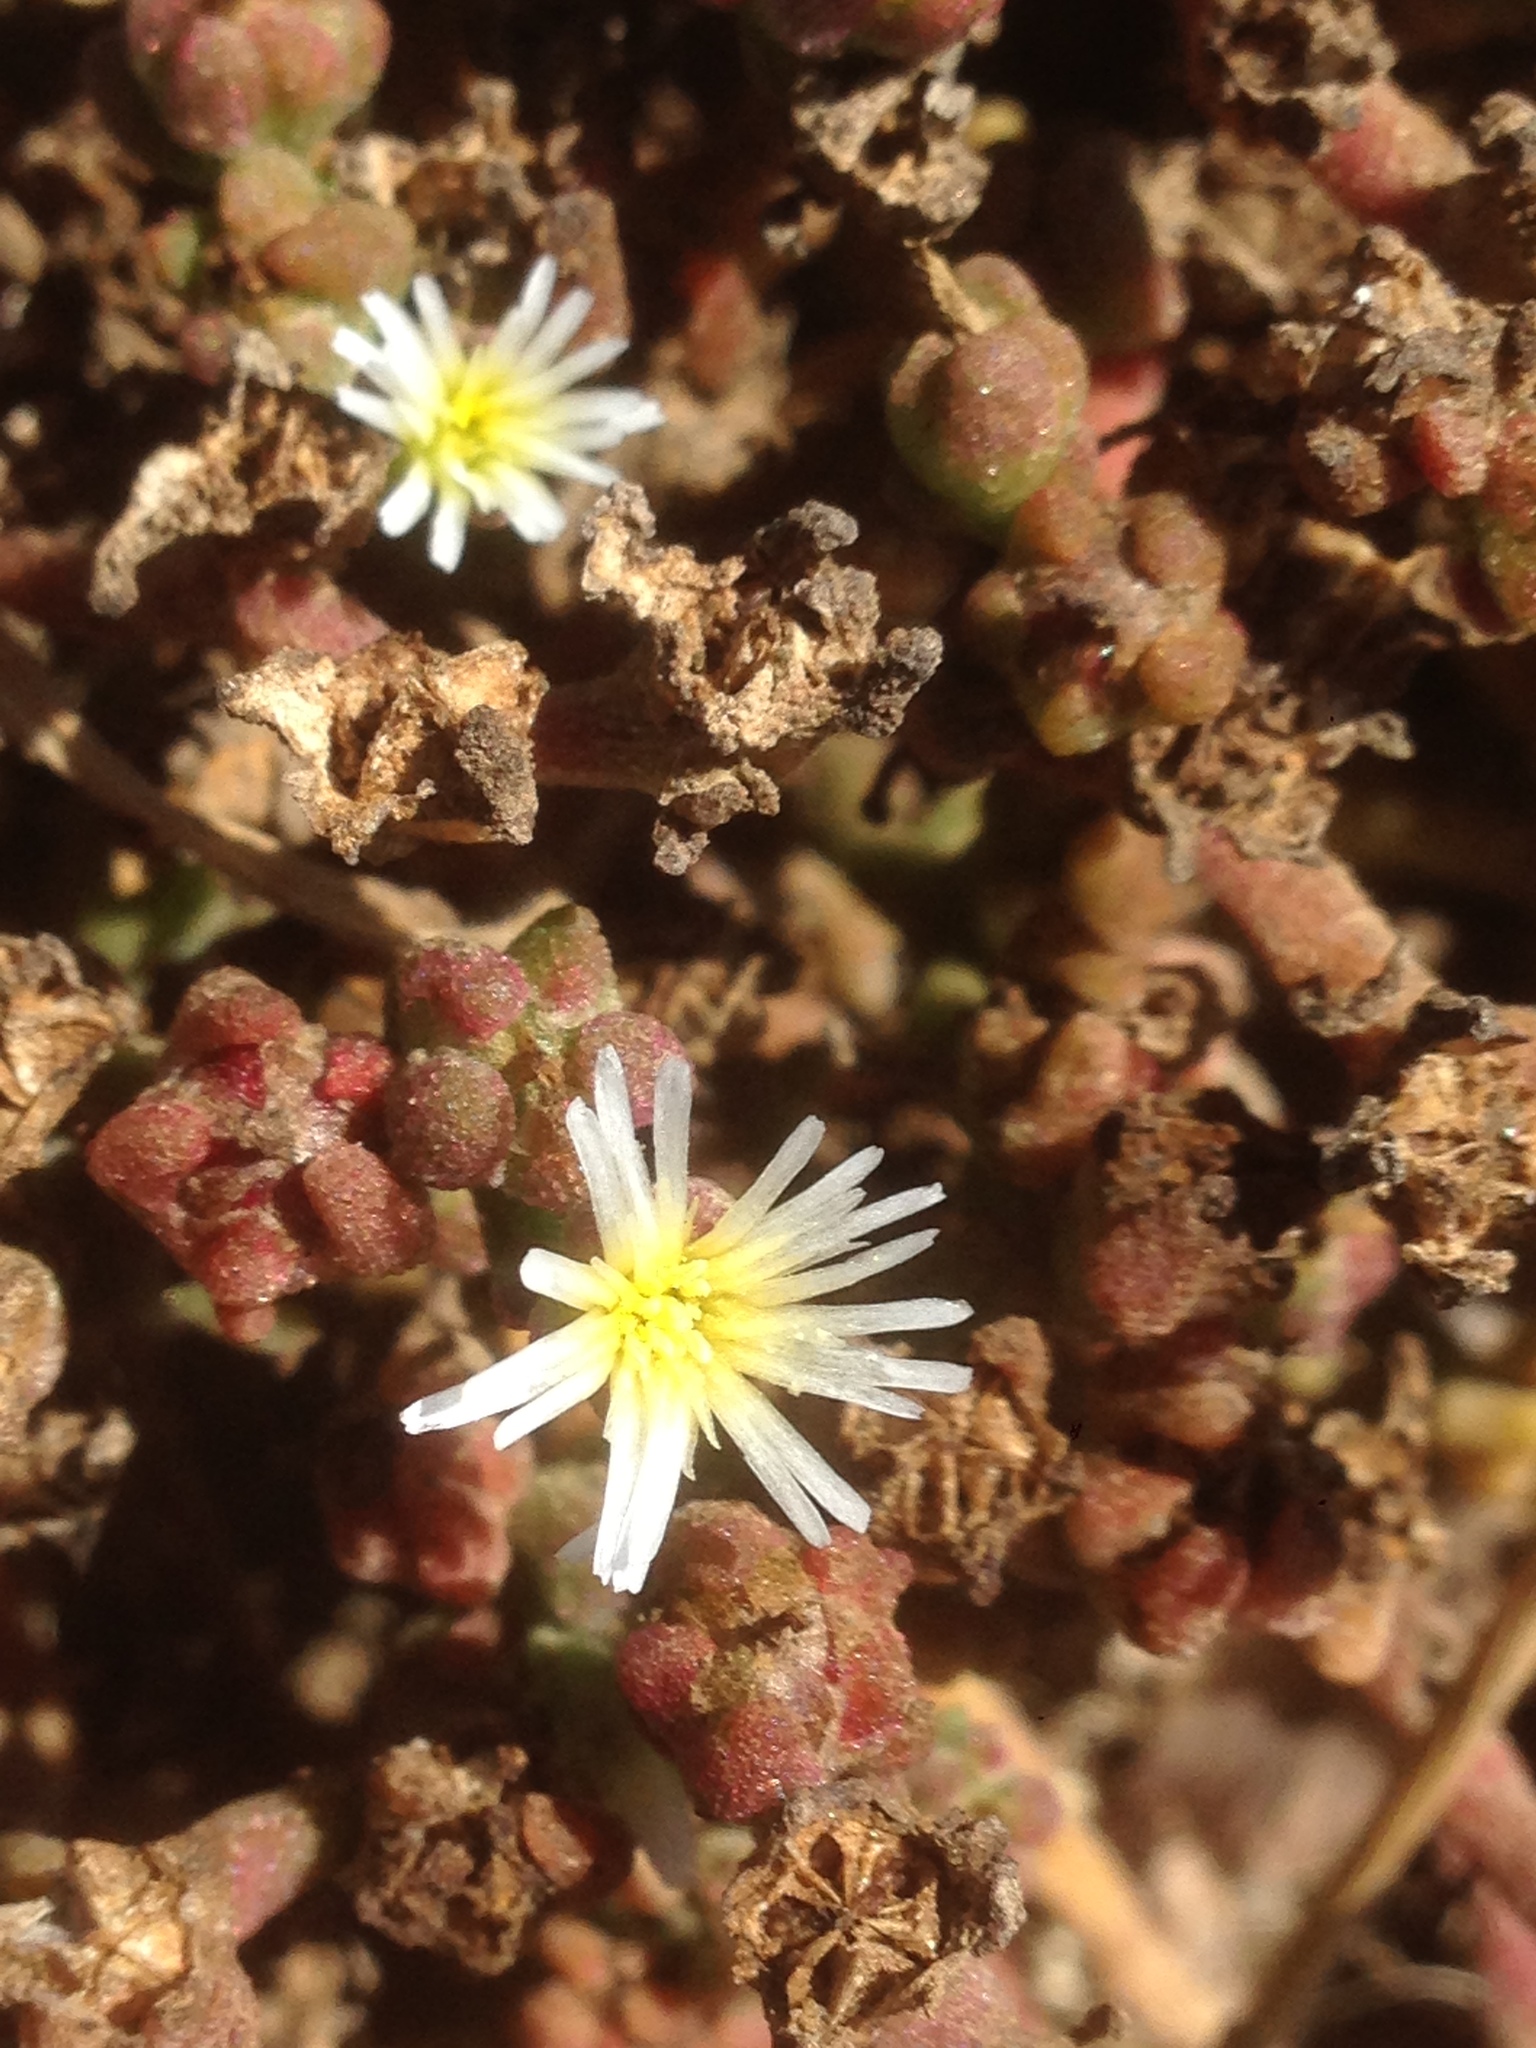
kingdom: Plantae
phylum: Tracheophyta
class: Magnoliopsida
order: Caryophyllales
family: Aizoaceae
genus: Mesembryanthemum
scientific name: Mesembryanthemum nodiflorum
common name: Slenderleaf iceplant
